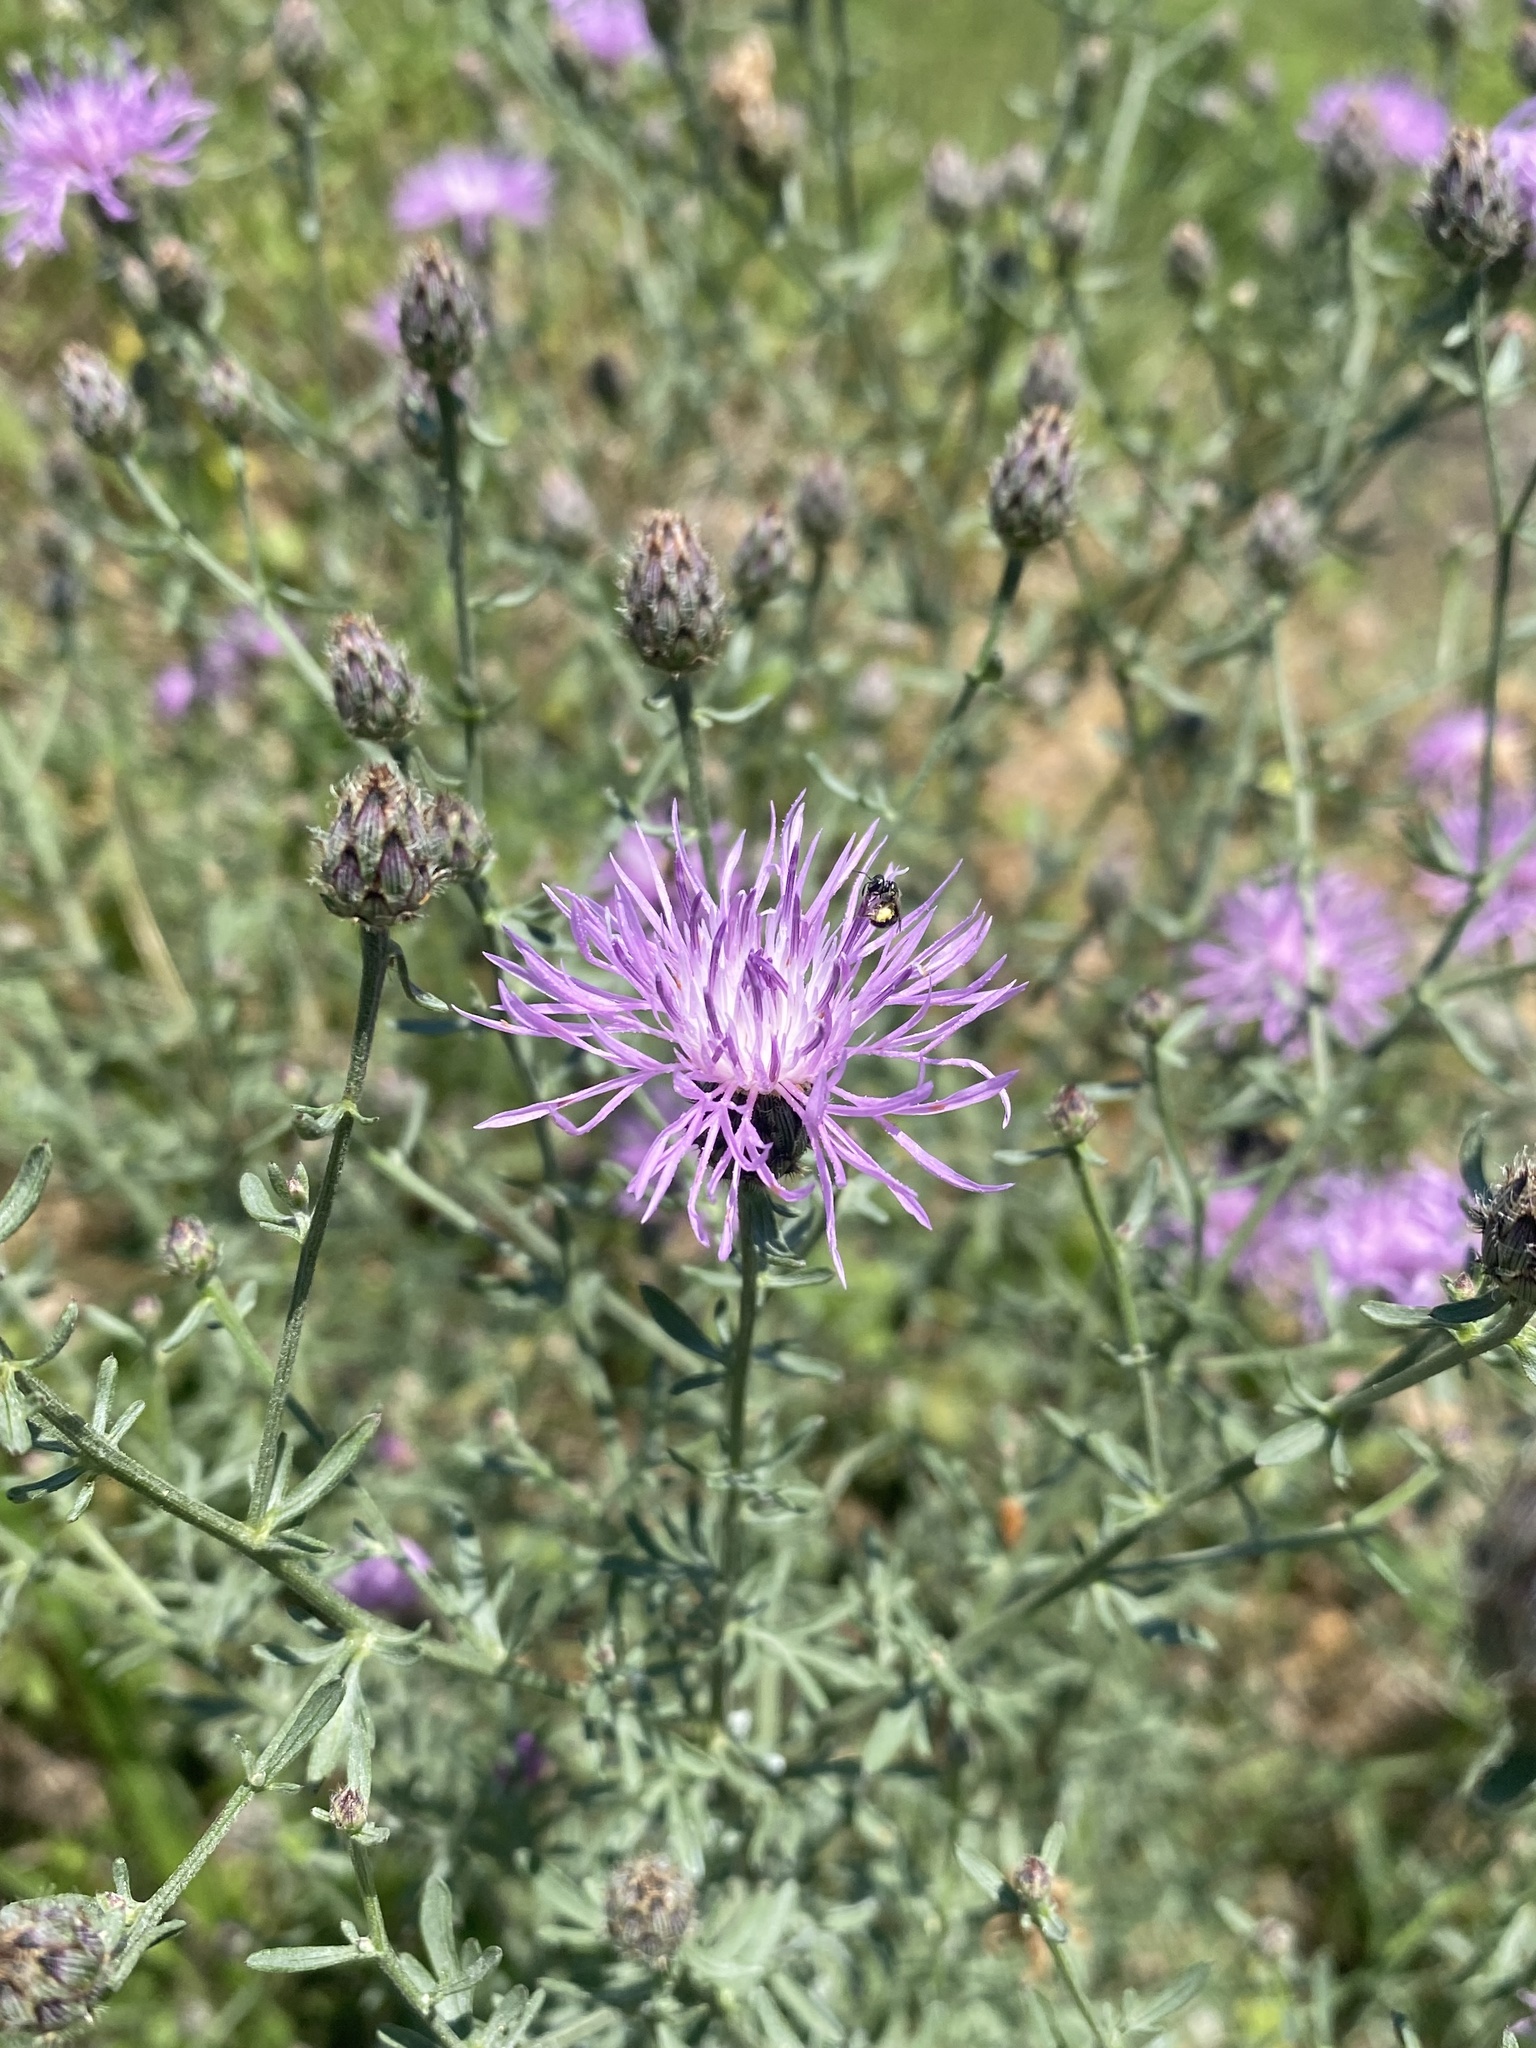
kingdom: Plantae
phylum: Tracheophyta
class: Magnoliopsida
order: Asterales
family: Asteraceae
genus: Centaurea
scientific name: Centaurea stoebe
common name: Spotted knapweed
